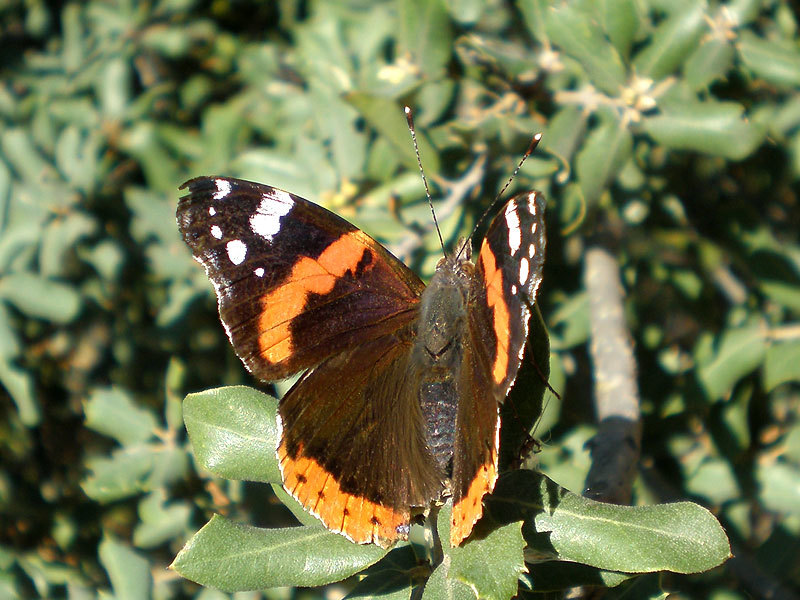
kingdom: Animalia
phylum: Arthropoda
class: Insecta
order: Lepidoptera
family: Nymphalidae
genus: Vanessa
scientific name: Vanessa atalanta
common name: Red admiral
